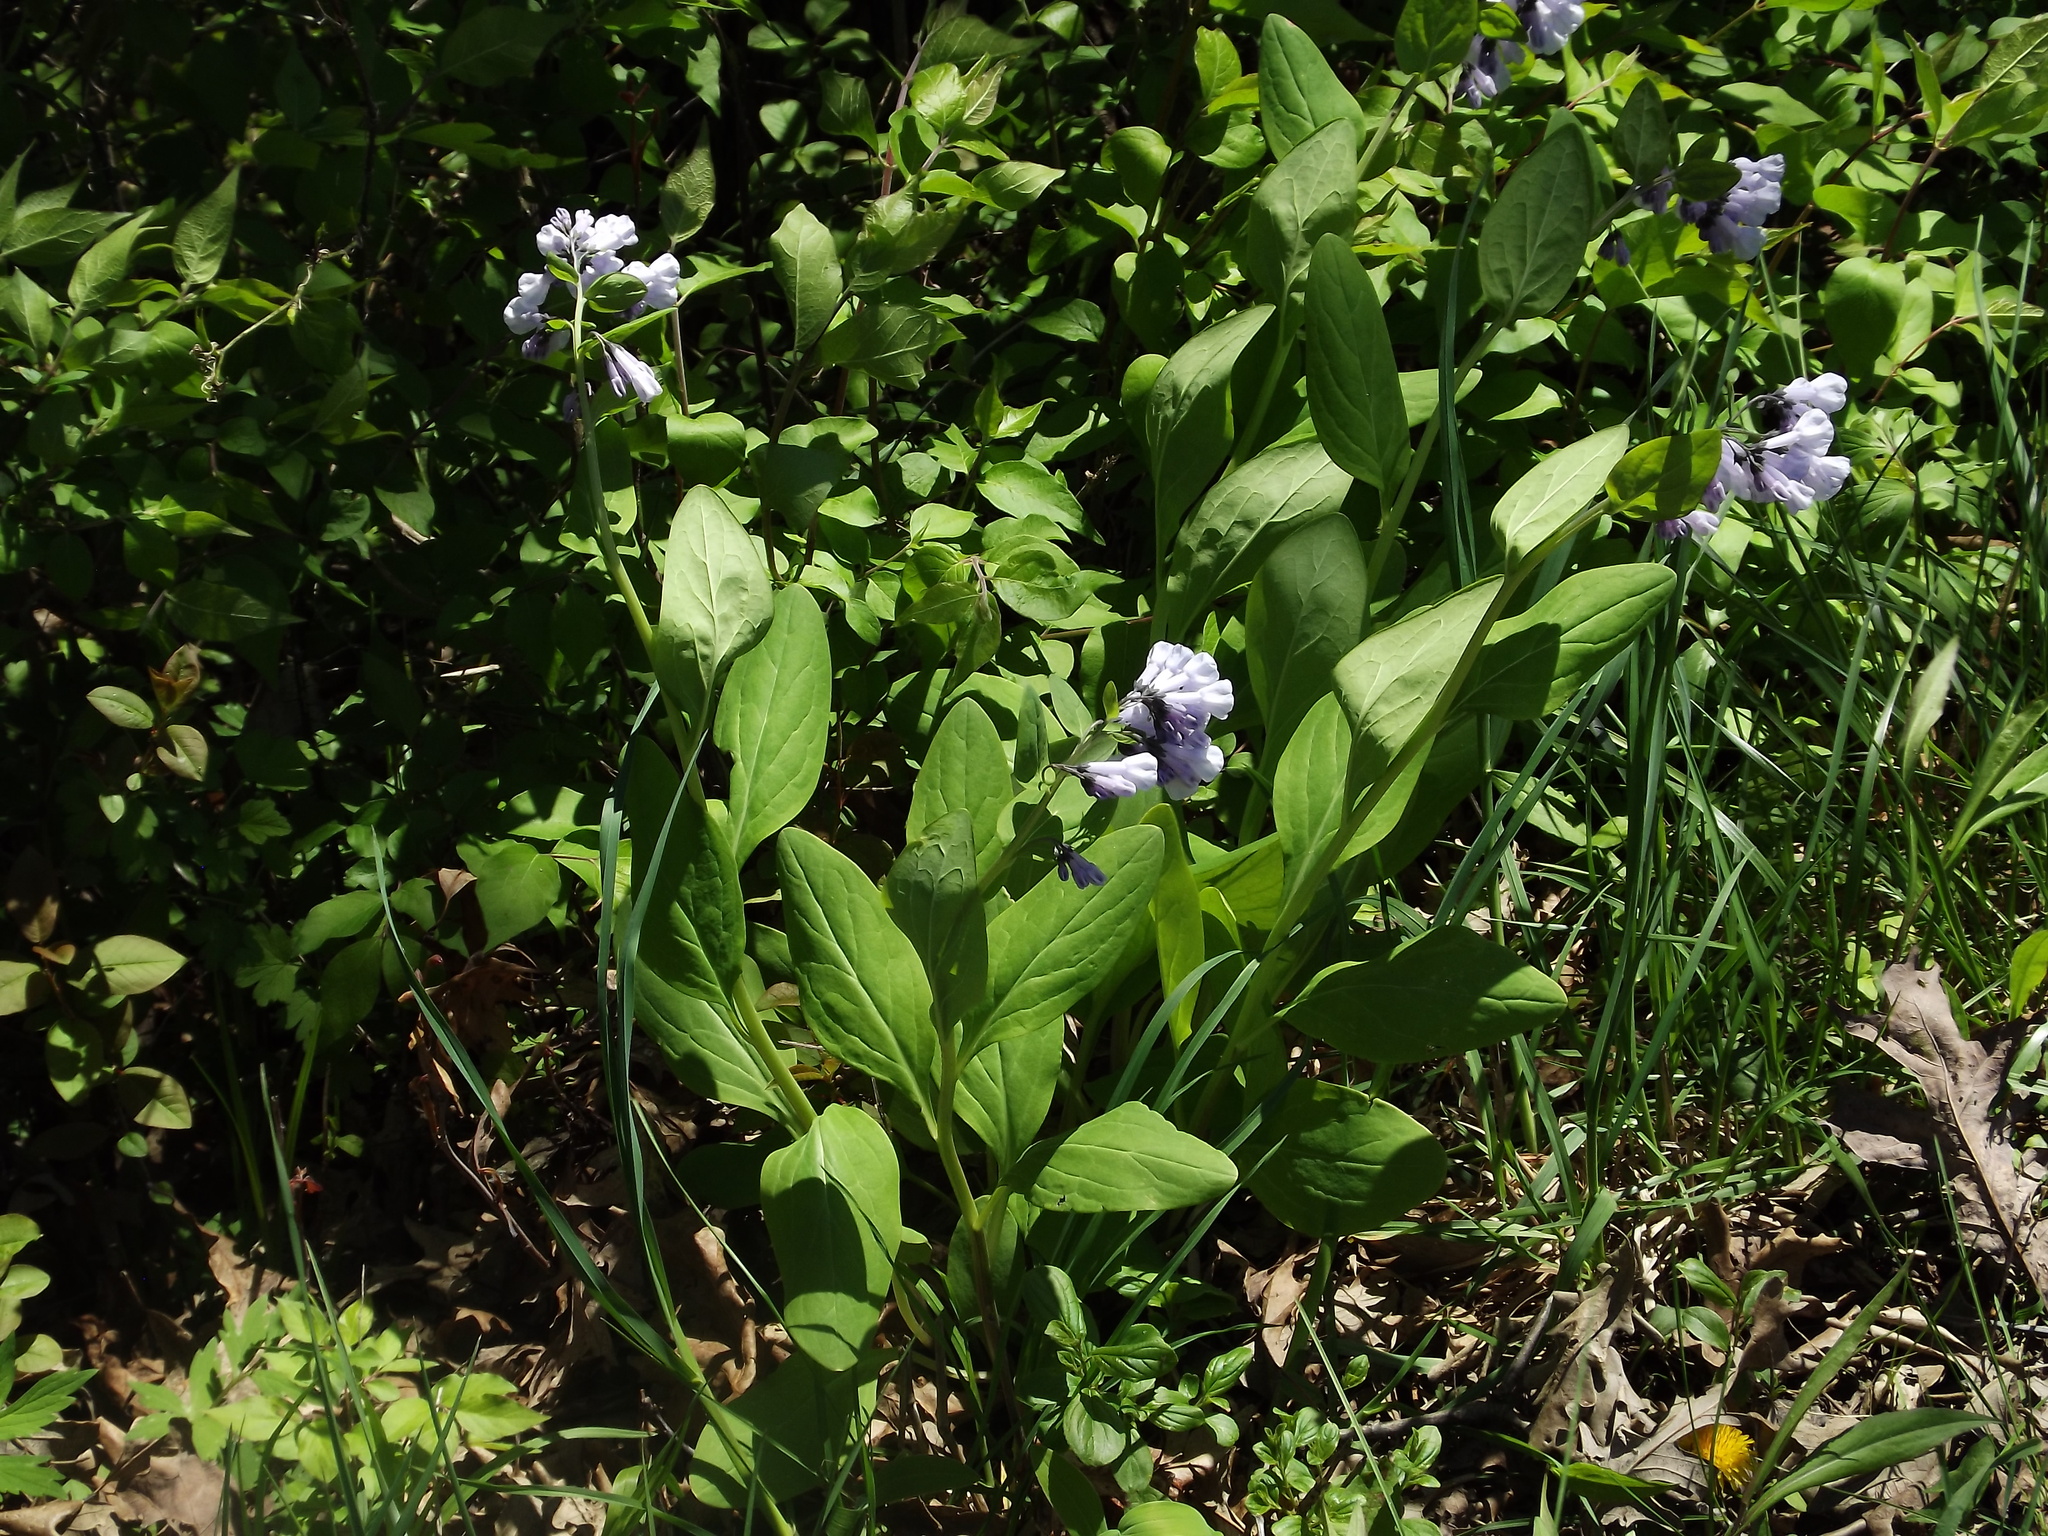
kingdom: Plantae
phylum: Tracheophyta
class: Magnoliopsida
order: Boraginales
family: Boraginaceae
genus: Mertensia
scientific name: Mertensia virginica
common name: Virginia bluebells
